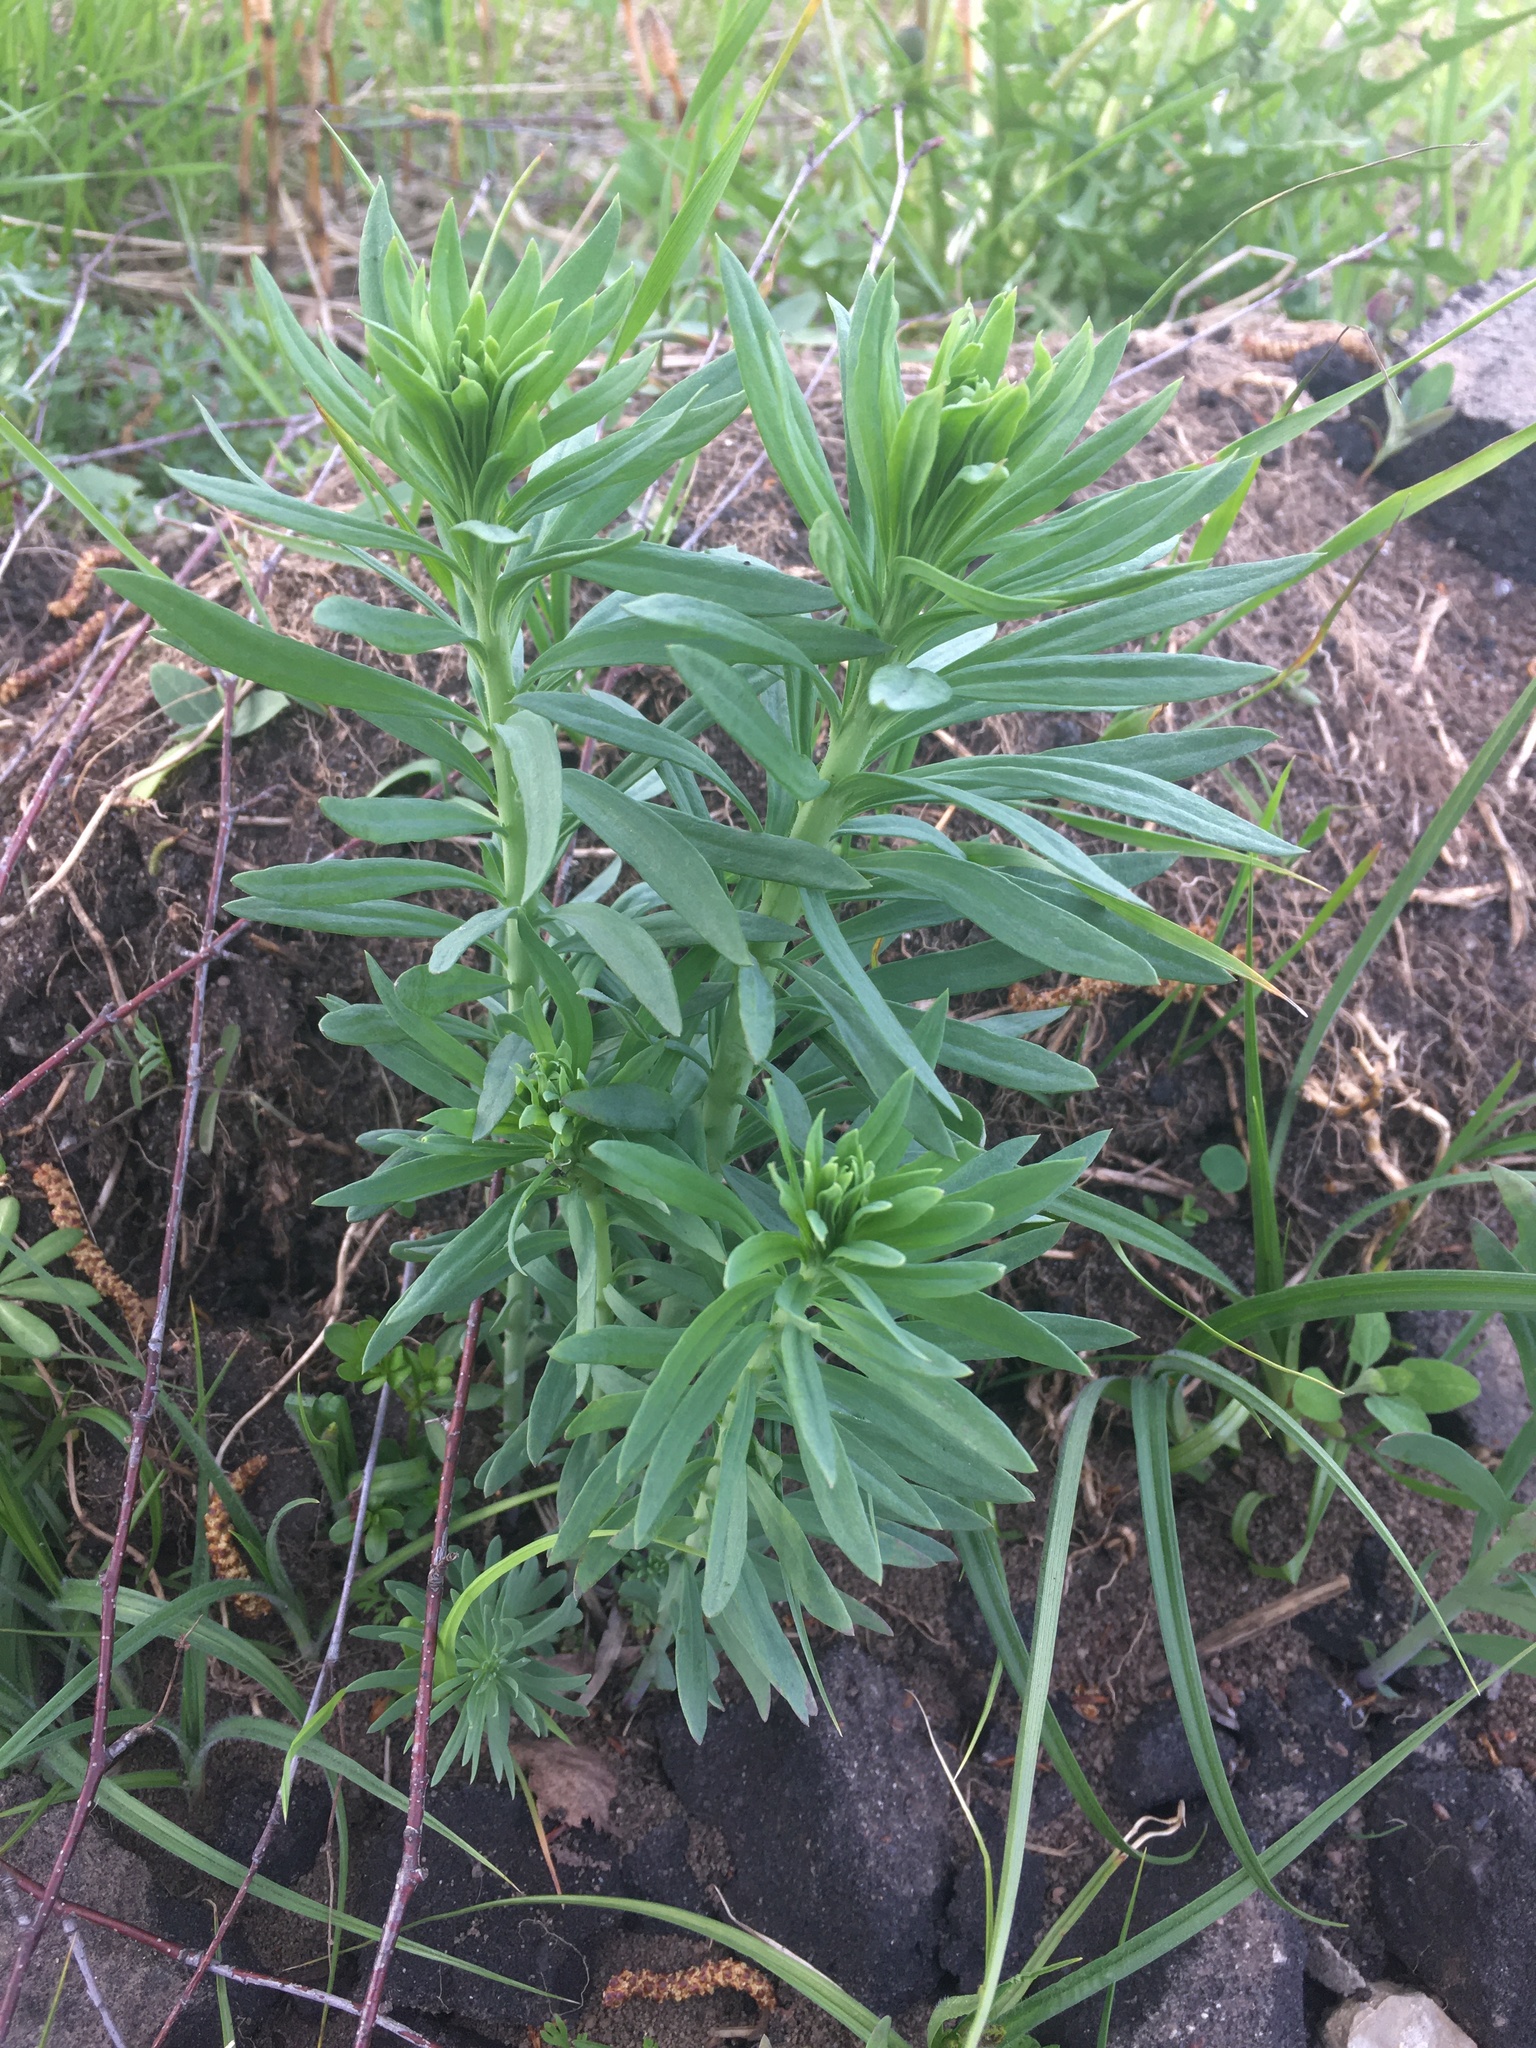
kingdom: Plantae
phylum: Tracheophyta
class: Magnoliopsida
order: Lamiales
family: Plantaginaceae
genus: Linaria
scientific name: Linaria vulgaris
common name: Butter and eggs
